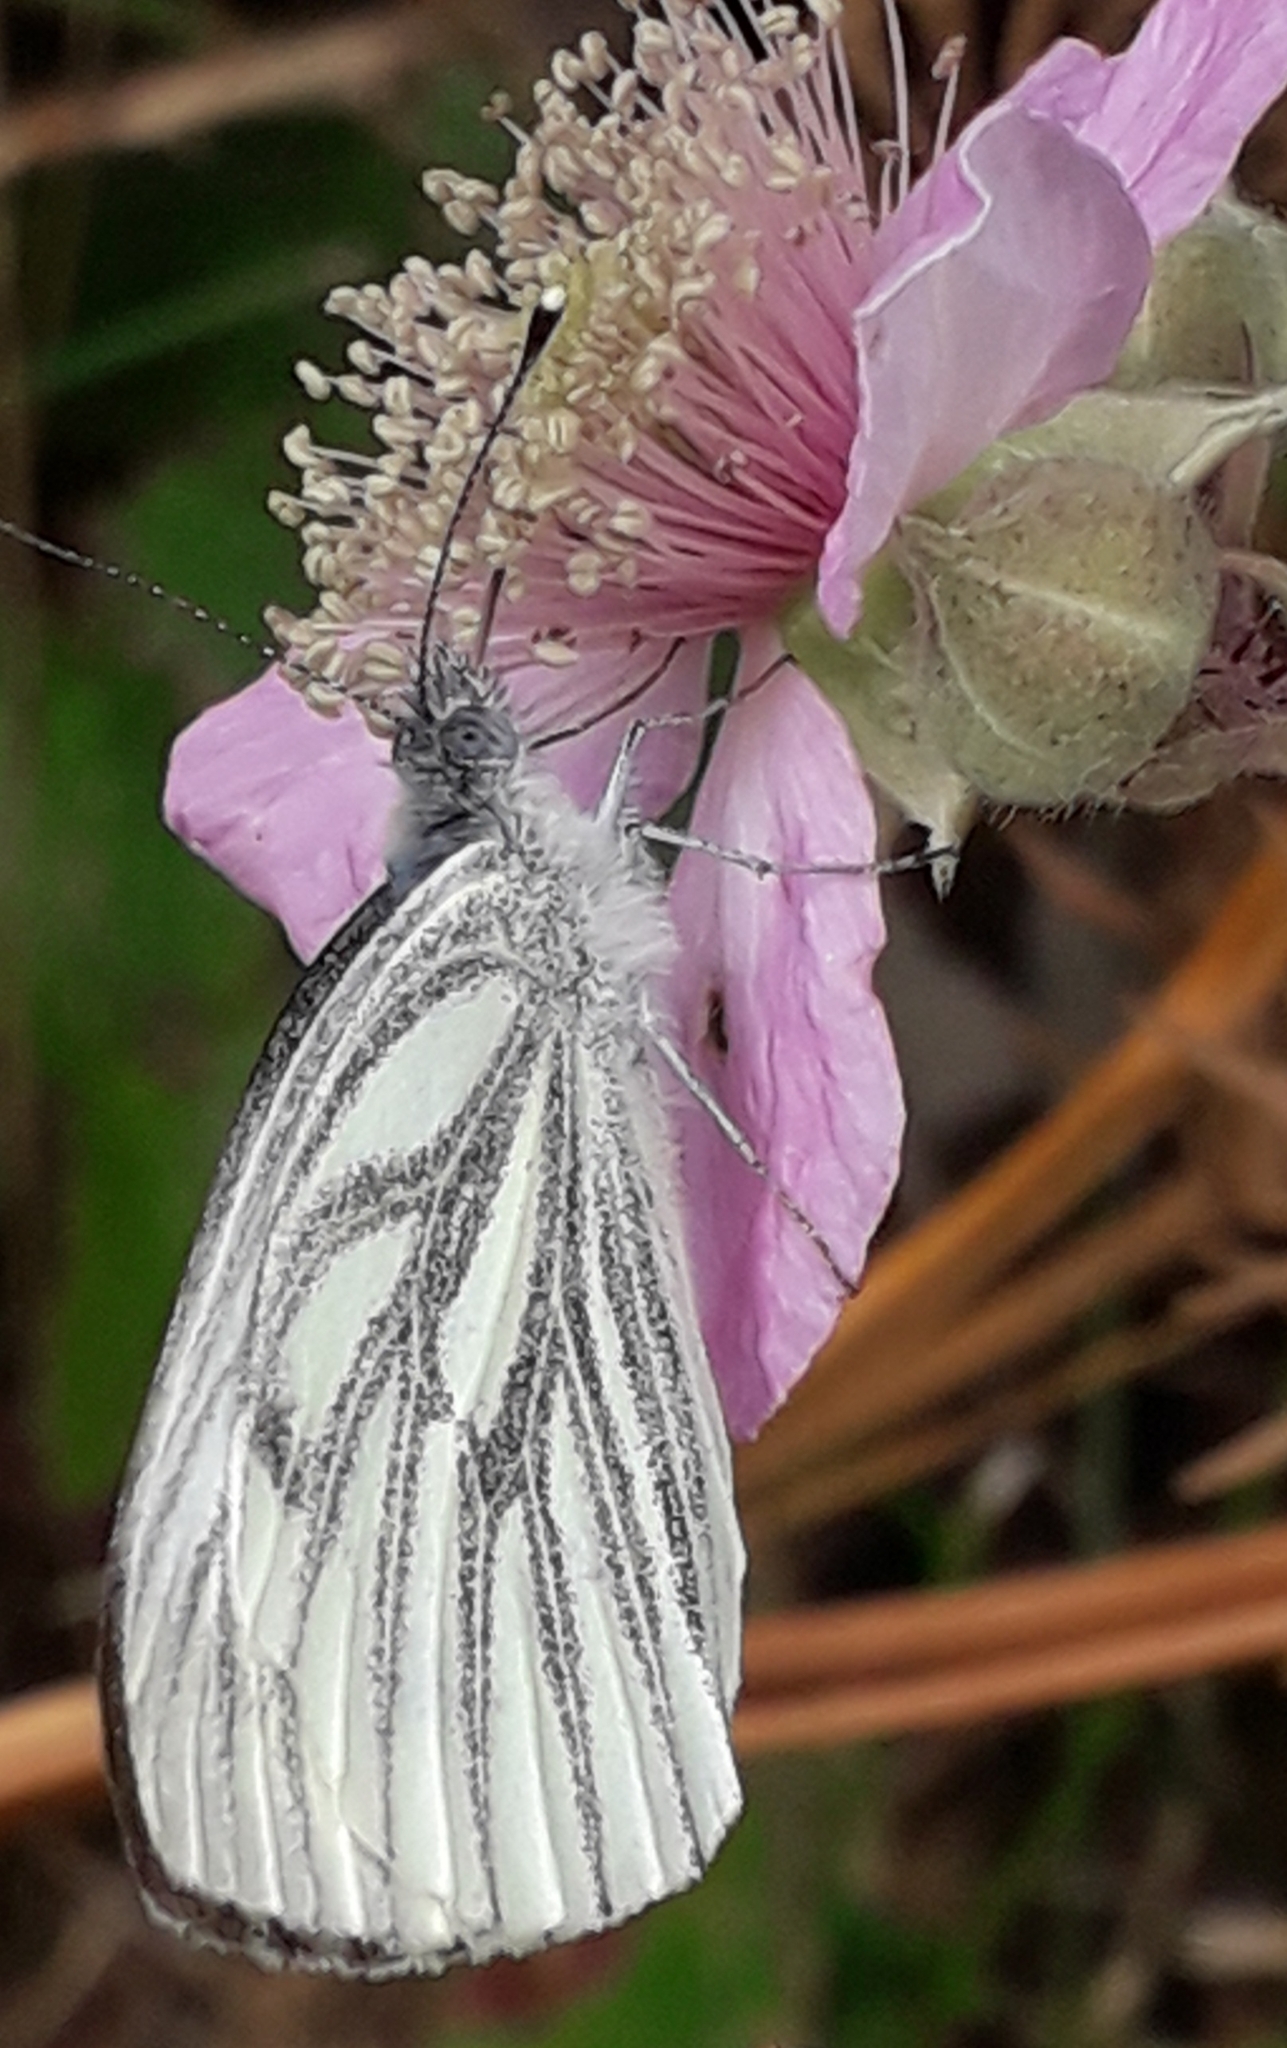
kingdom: Animalia
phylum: Arthropoda
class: Insecta
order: Lepidoptera
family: Pieridae
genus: Pieris
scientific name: Pieris napi
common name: Green-veined white
